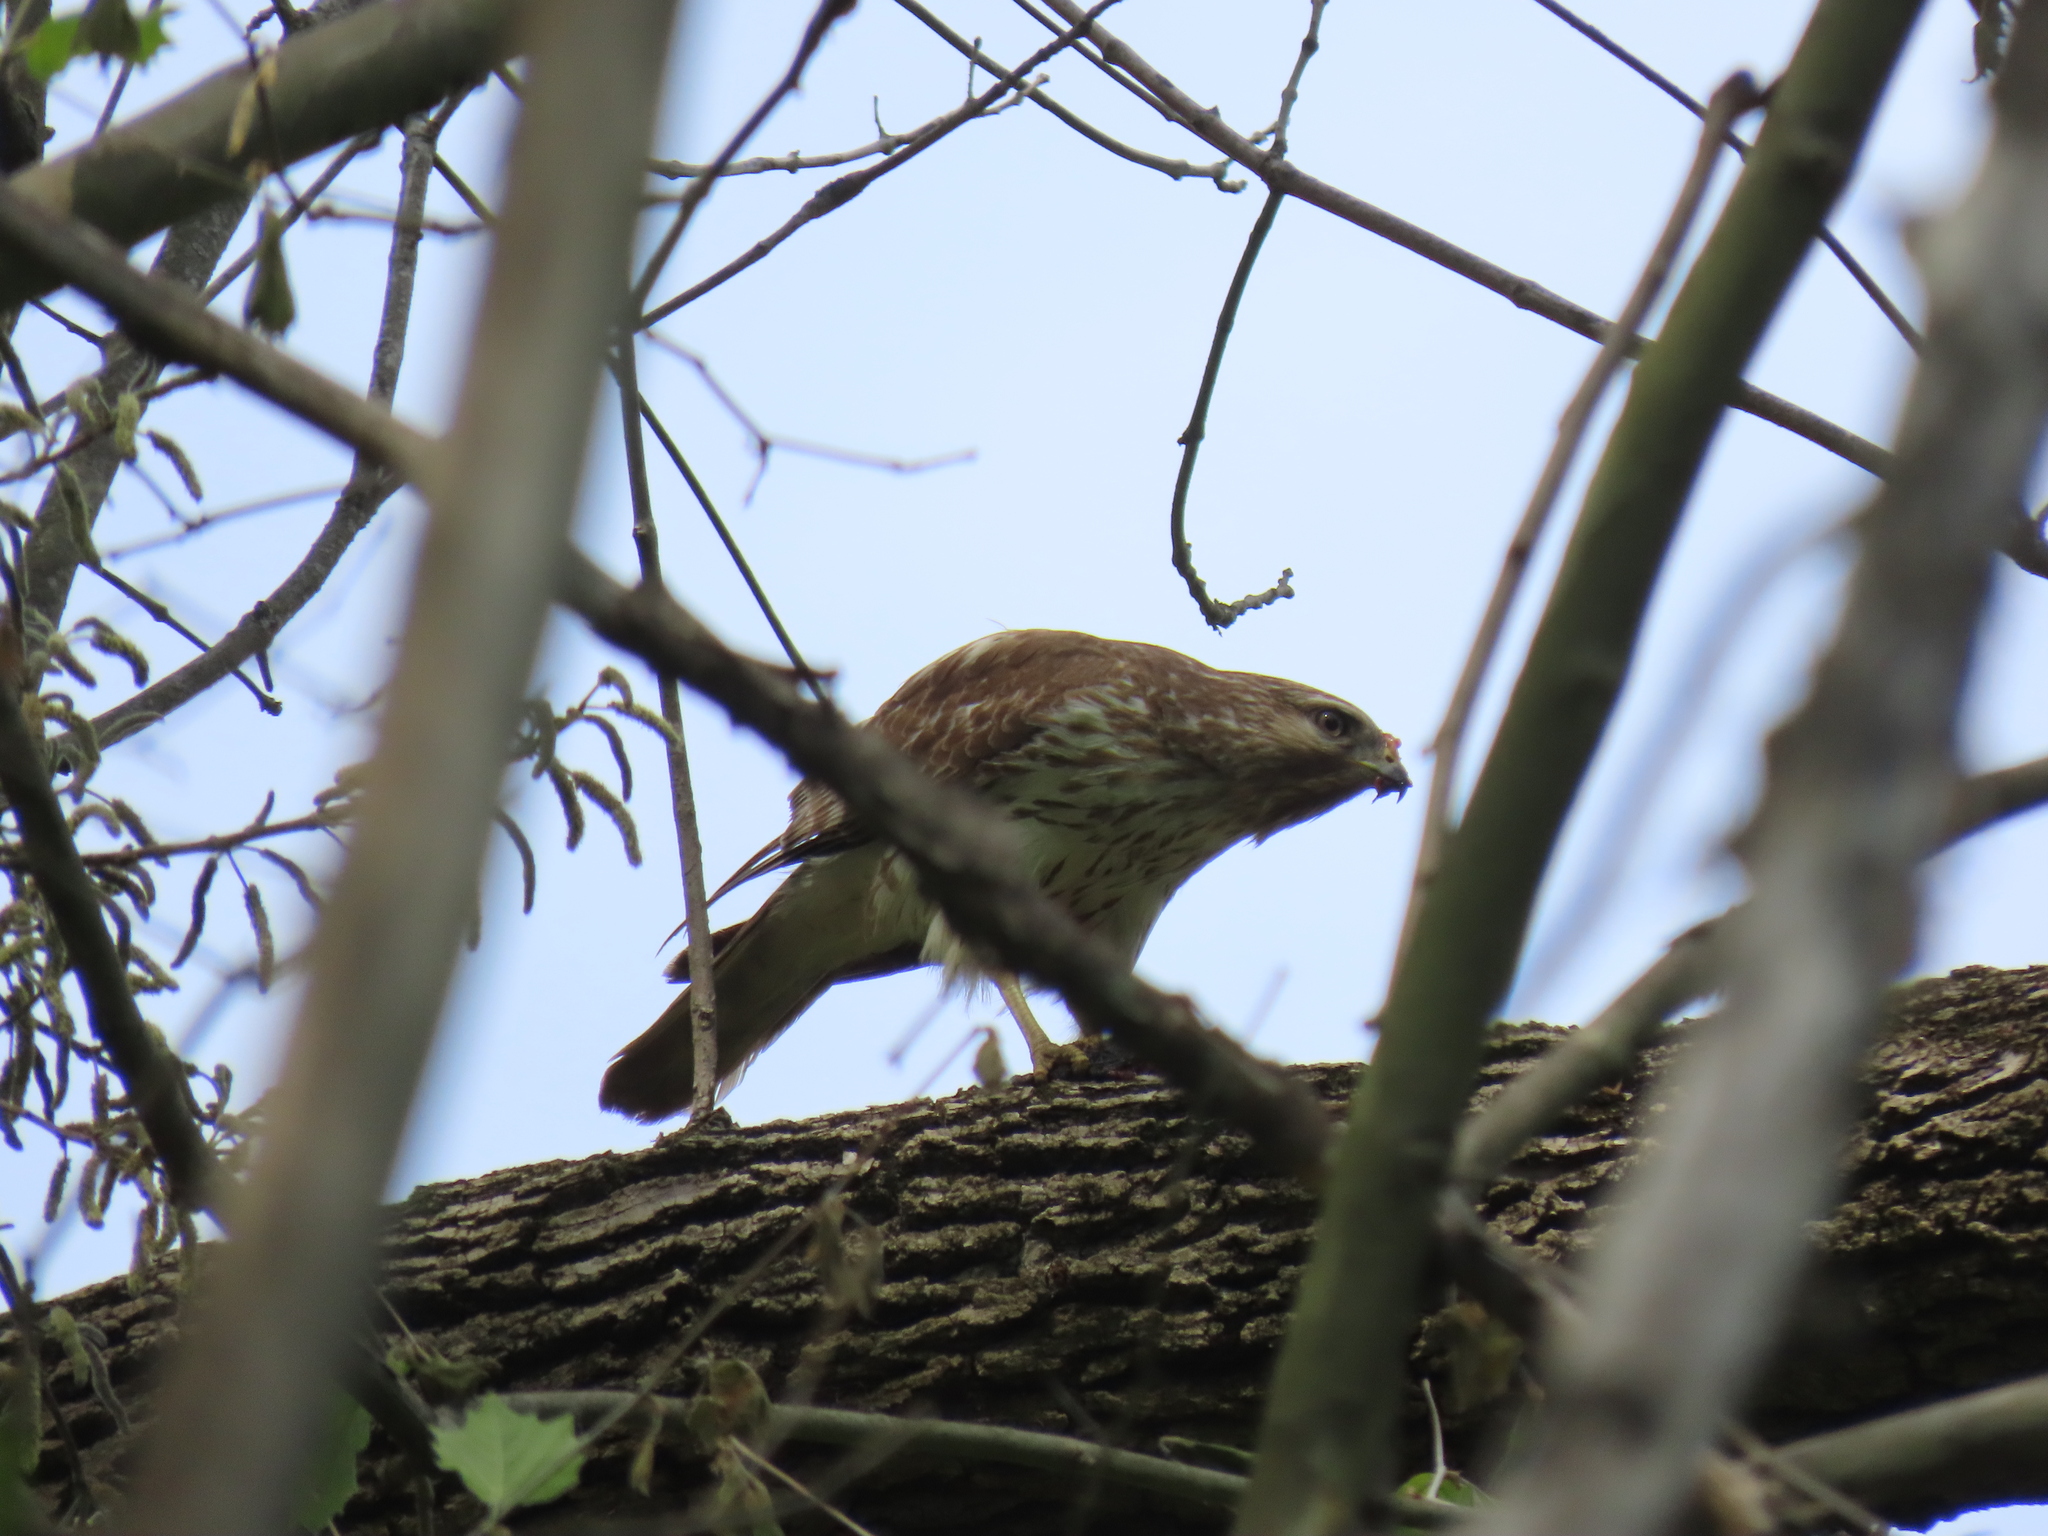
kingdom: Animalia
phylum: Chordata
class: Aves
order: Accipitriformes
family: Accipitridae
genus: Buteo
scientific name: Buteo lineatus
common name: Red-shouldered hawk
